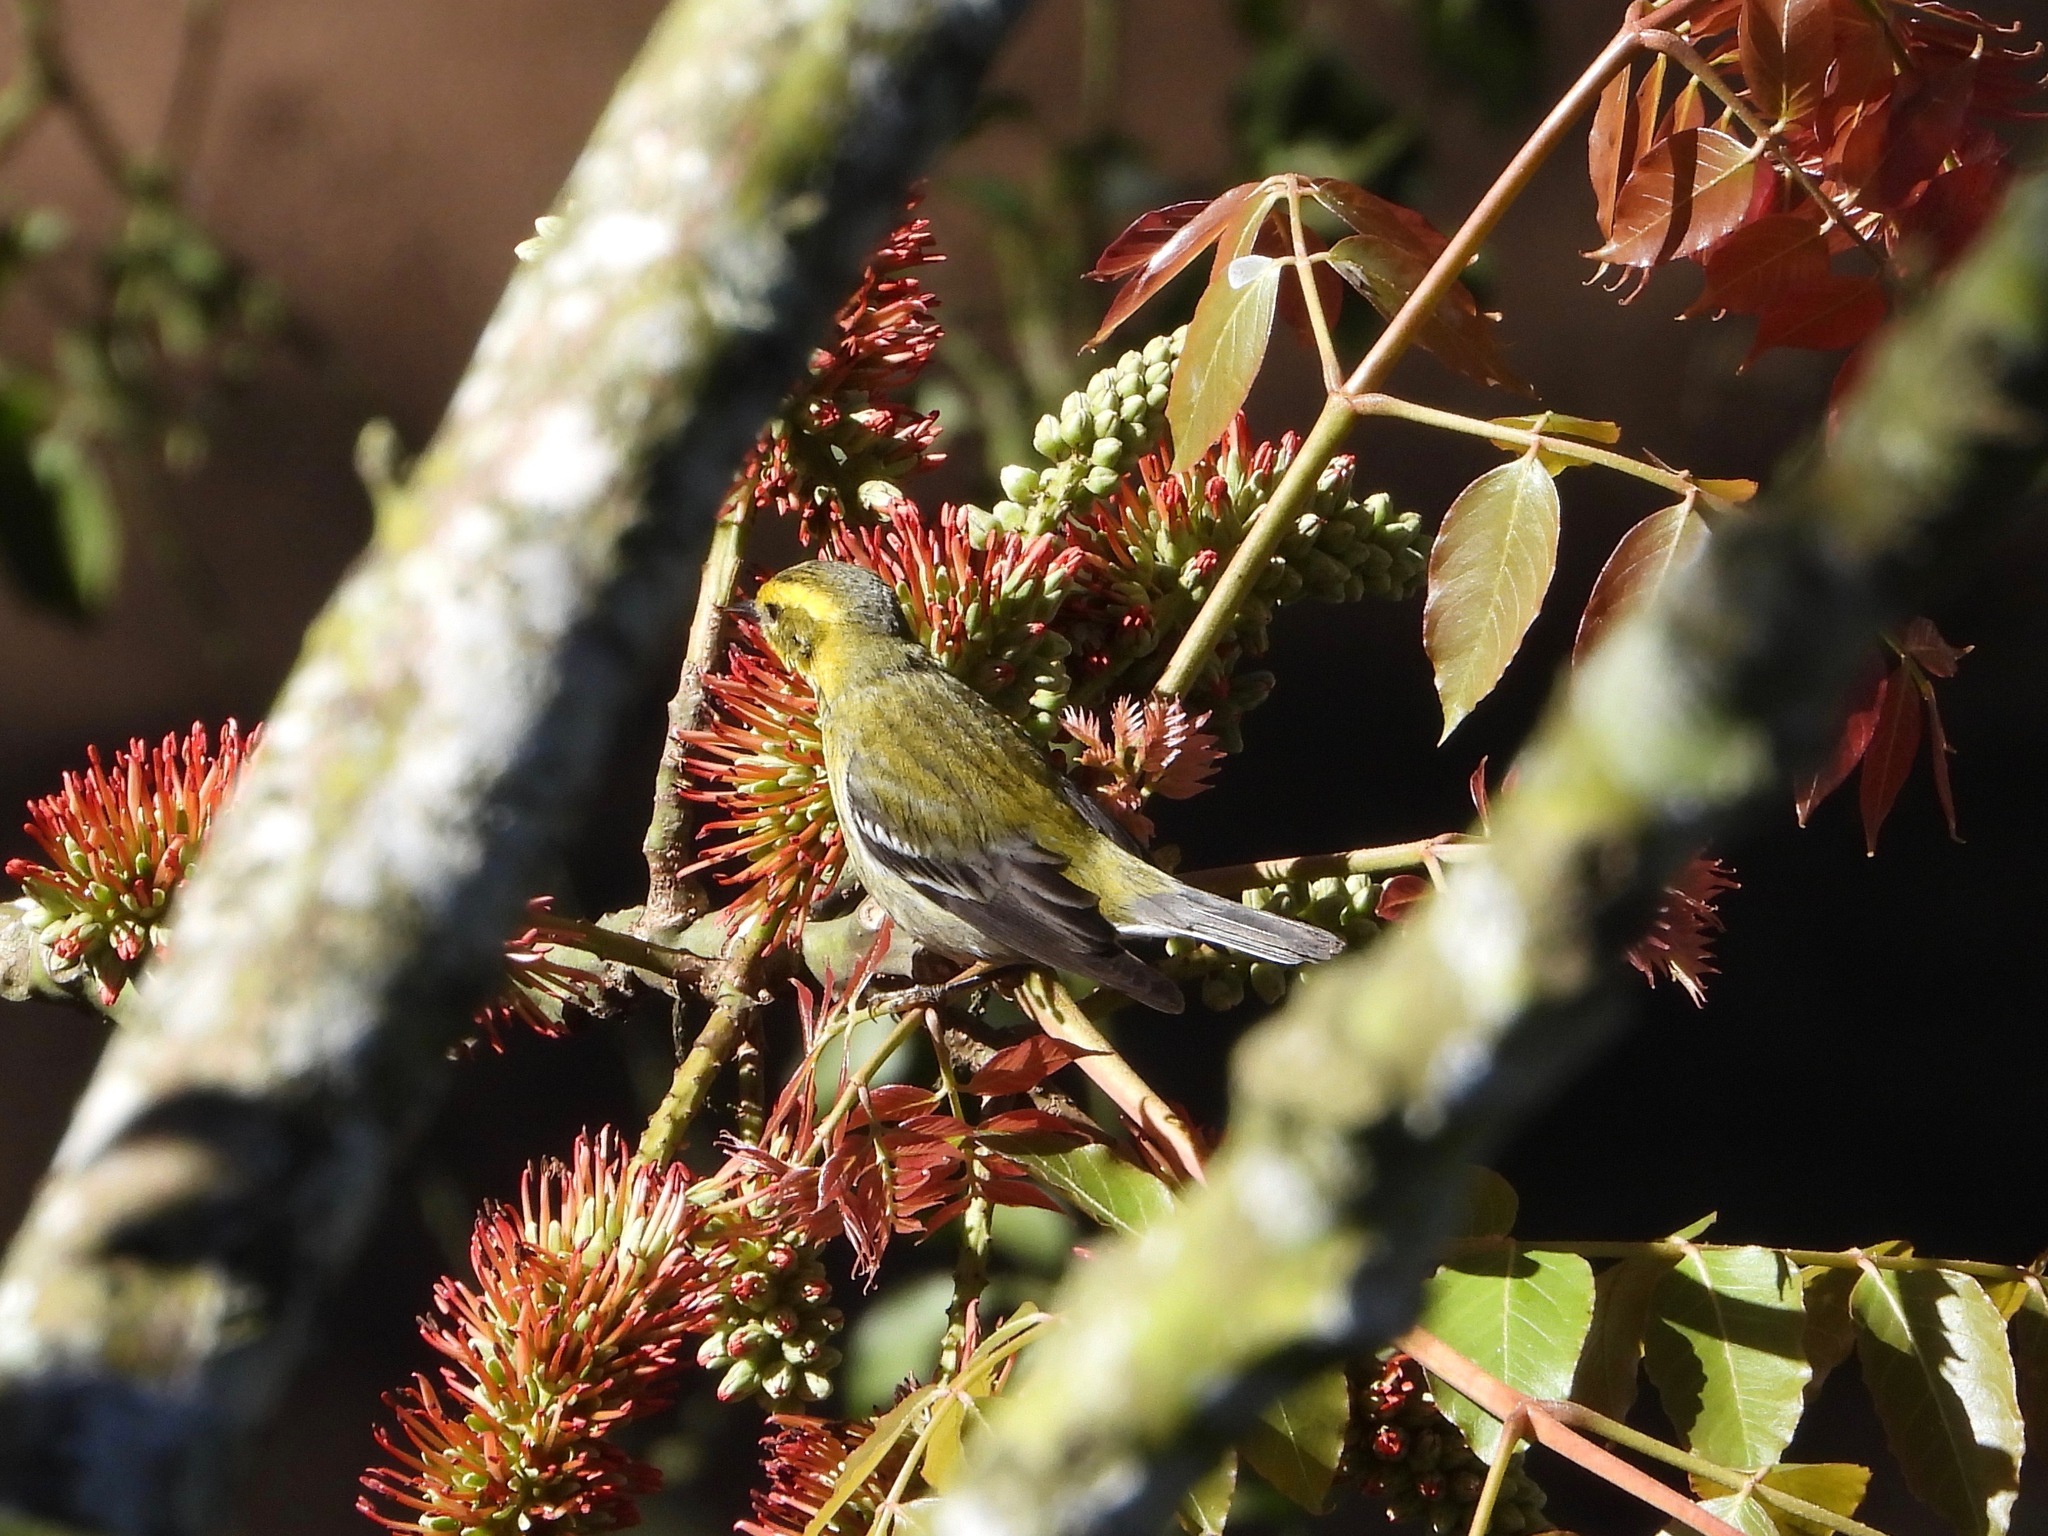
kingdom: Animalia
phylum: Chordata
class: Aves
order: Passeriformes
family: Parulidae
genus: Setophaga
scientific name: Setophaga townsendi
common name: Townsend's warbler
